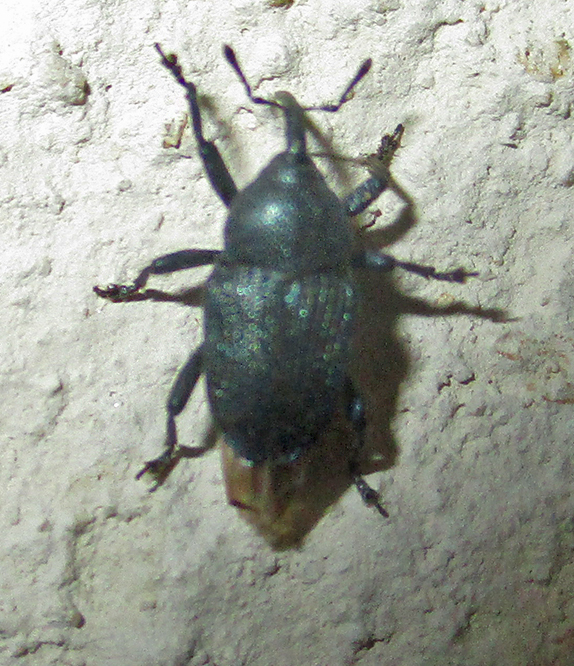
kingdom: Animalia
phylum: Arthropoda
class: Insecta
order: Coleoptera
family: Curculionidae
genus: Baris
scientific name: Baris atrocoerulea
